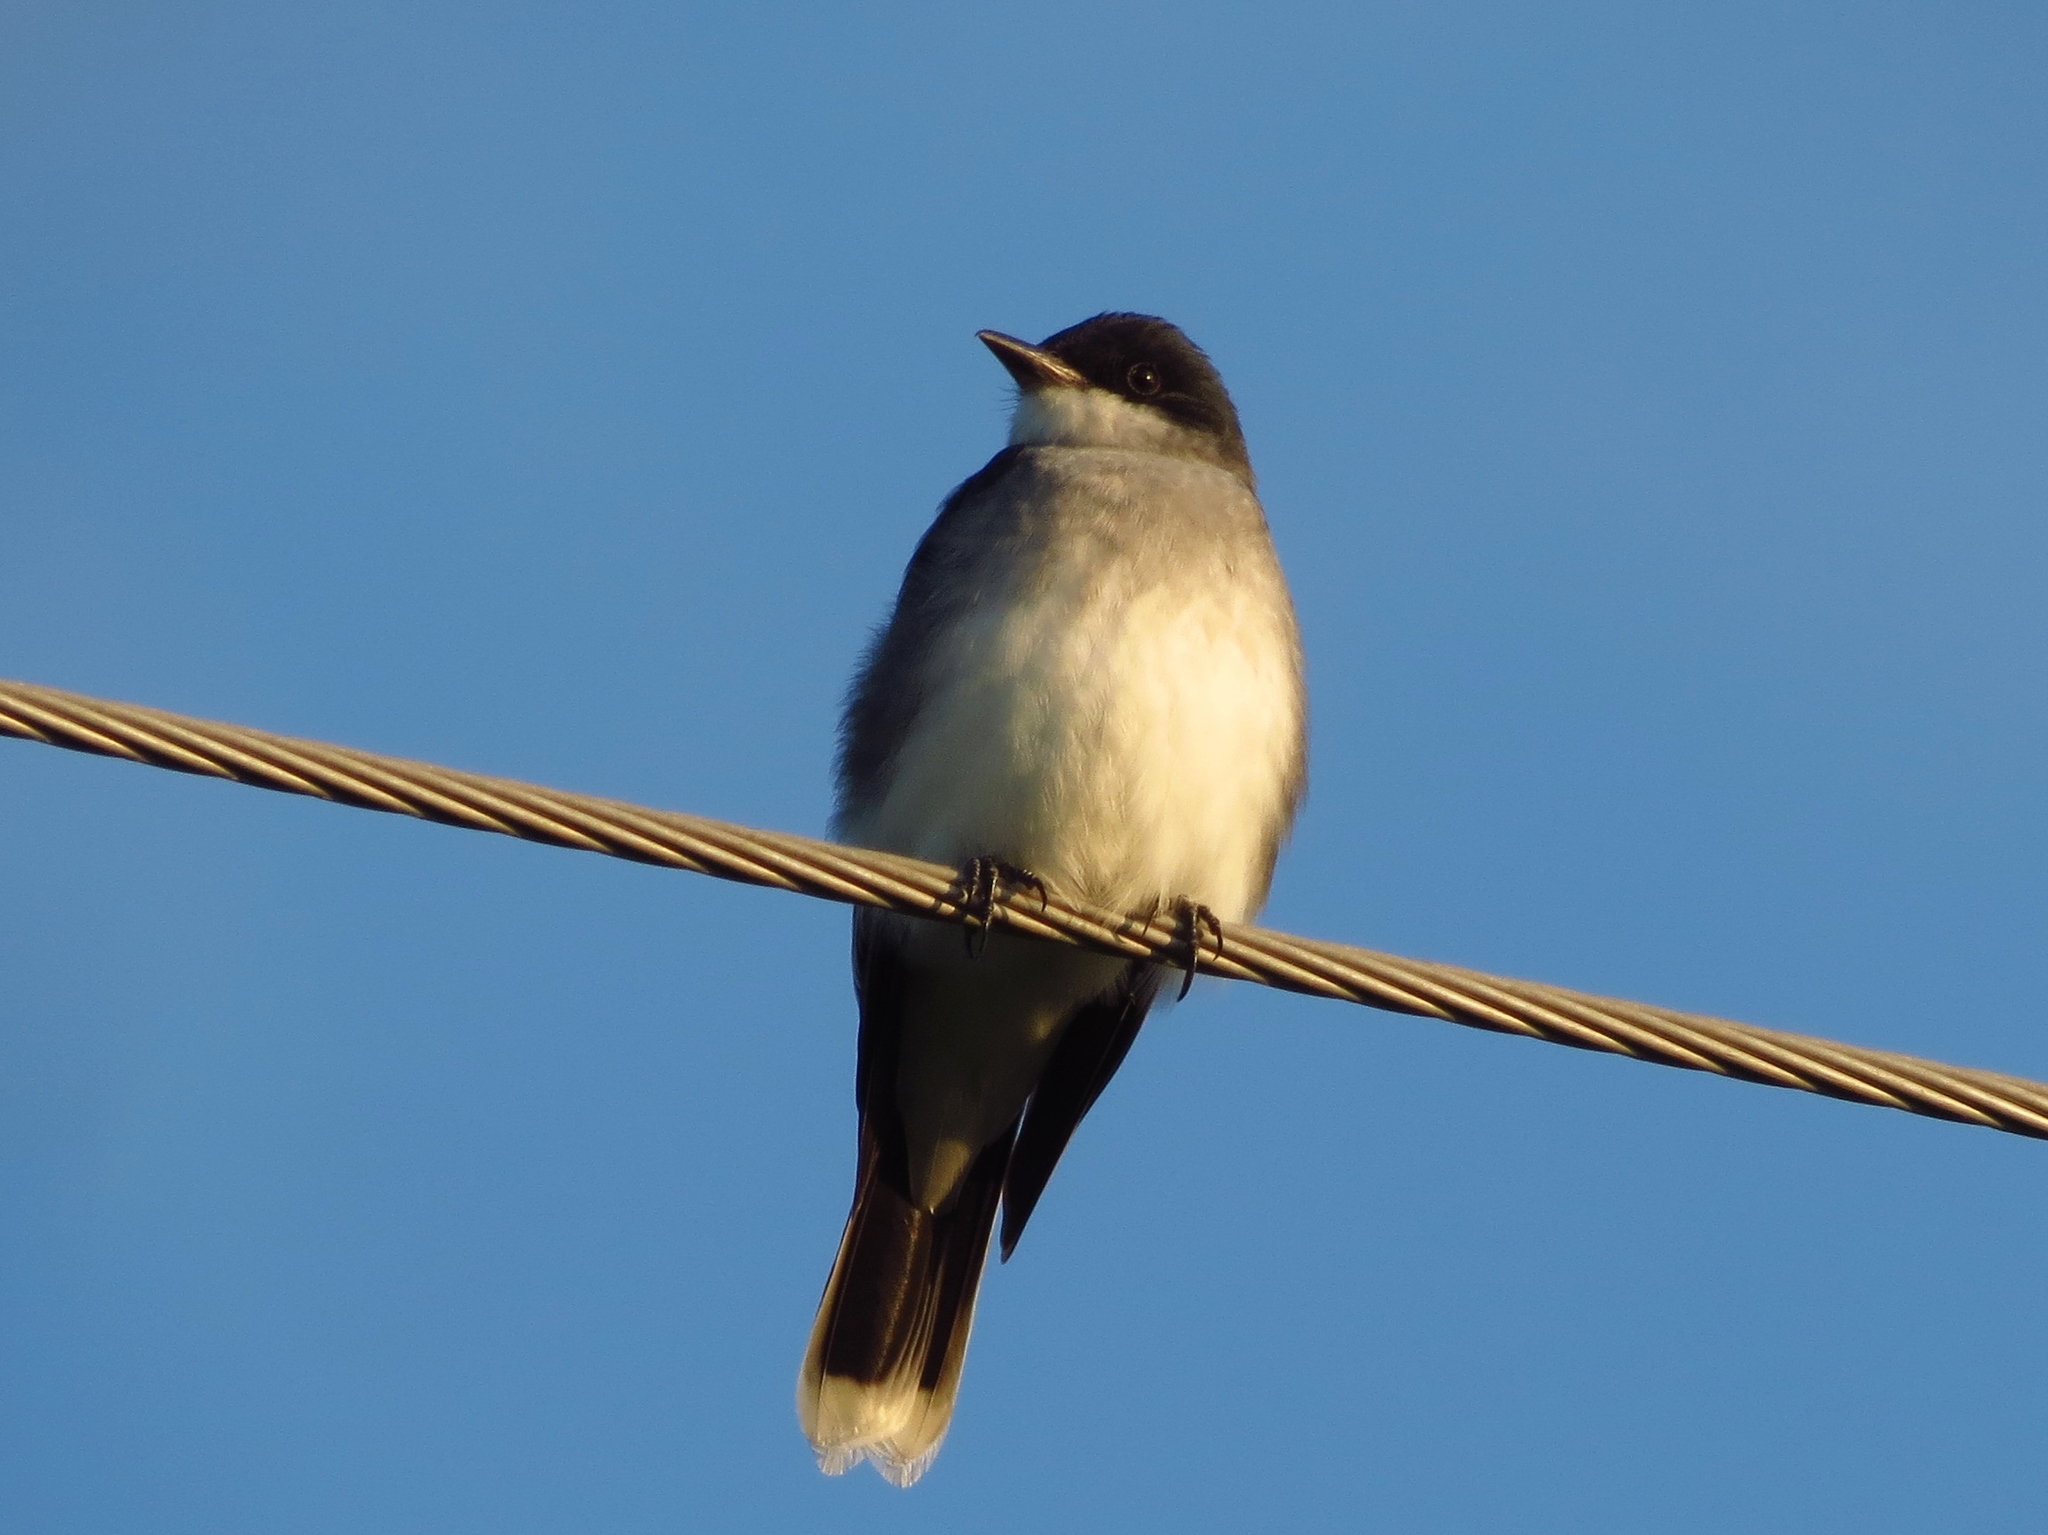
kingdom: Animalia
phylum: Chordata
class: Aves
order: Passeriformes
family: Tyrannidae
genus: Tyrannus
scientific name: Tyrannus tyrannus
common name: Eastern kingbird
